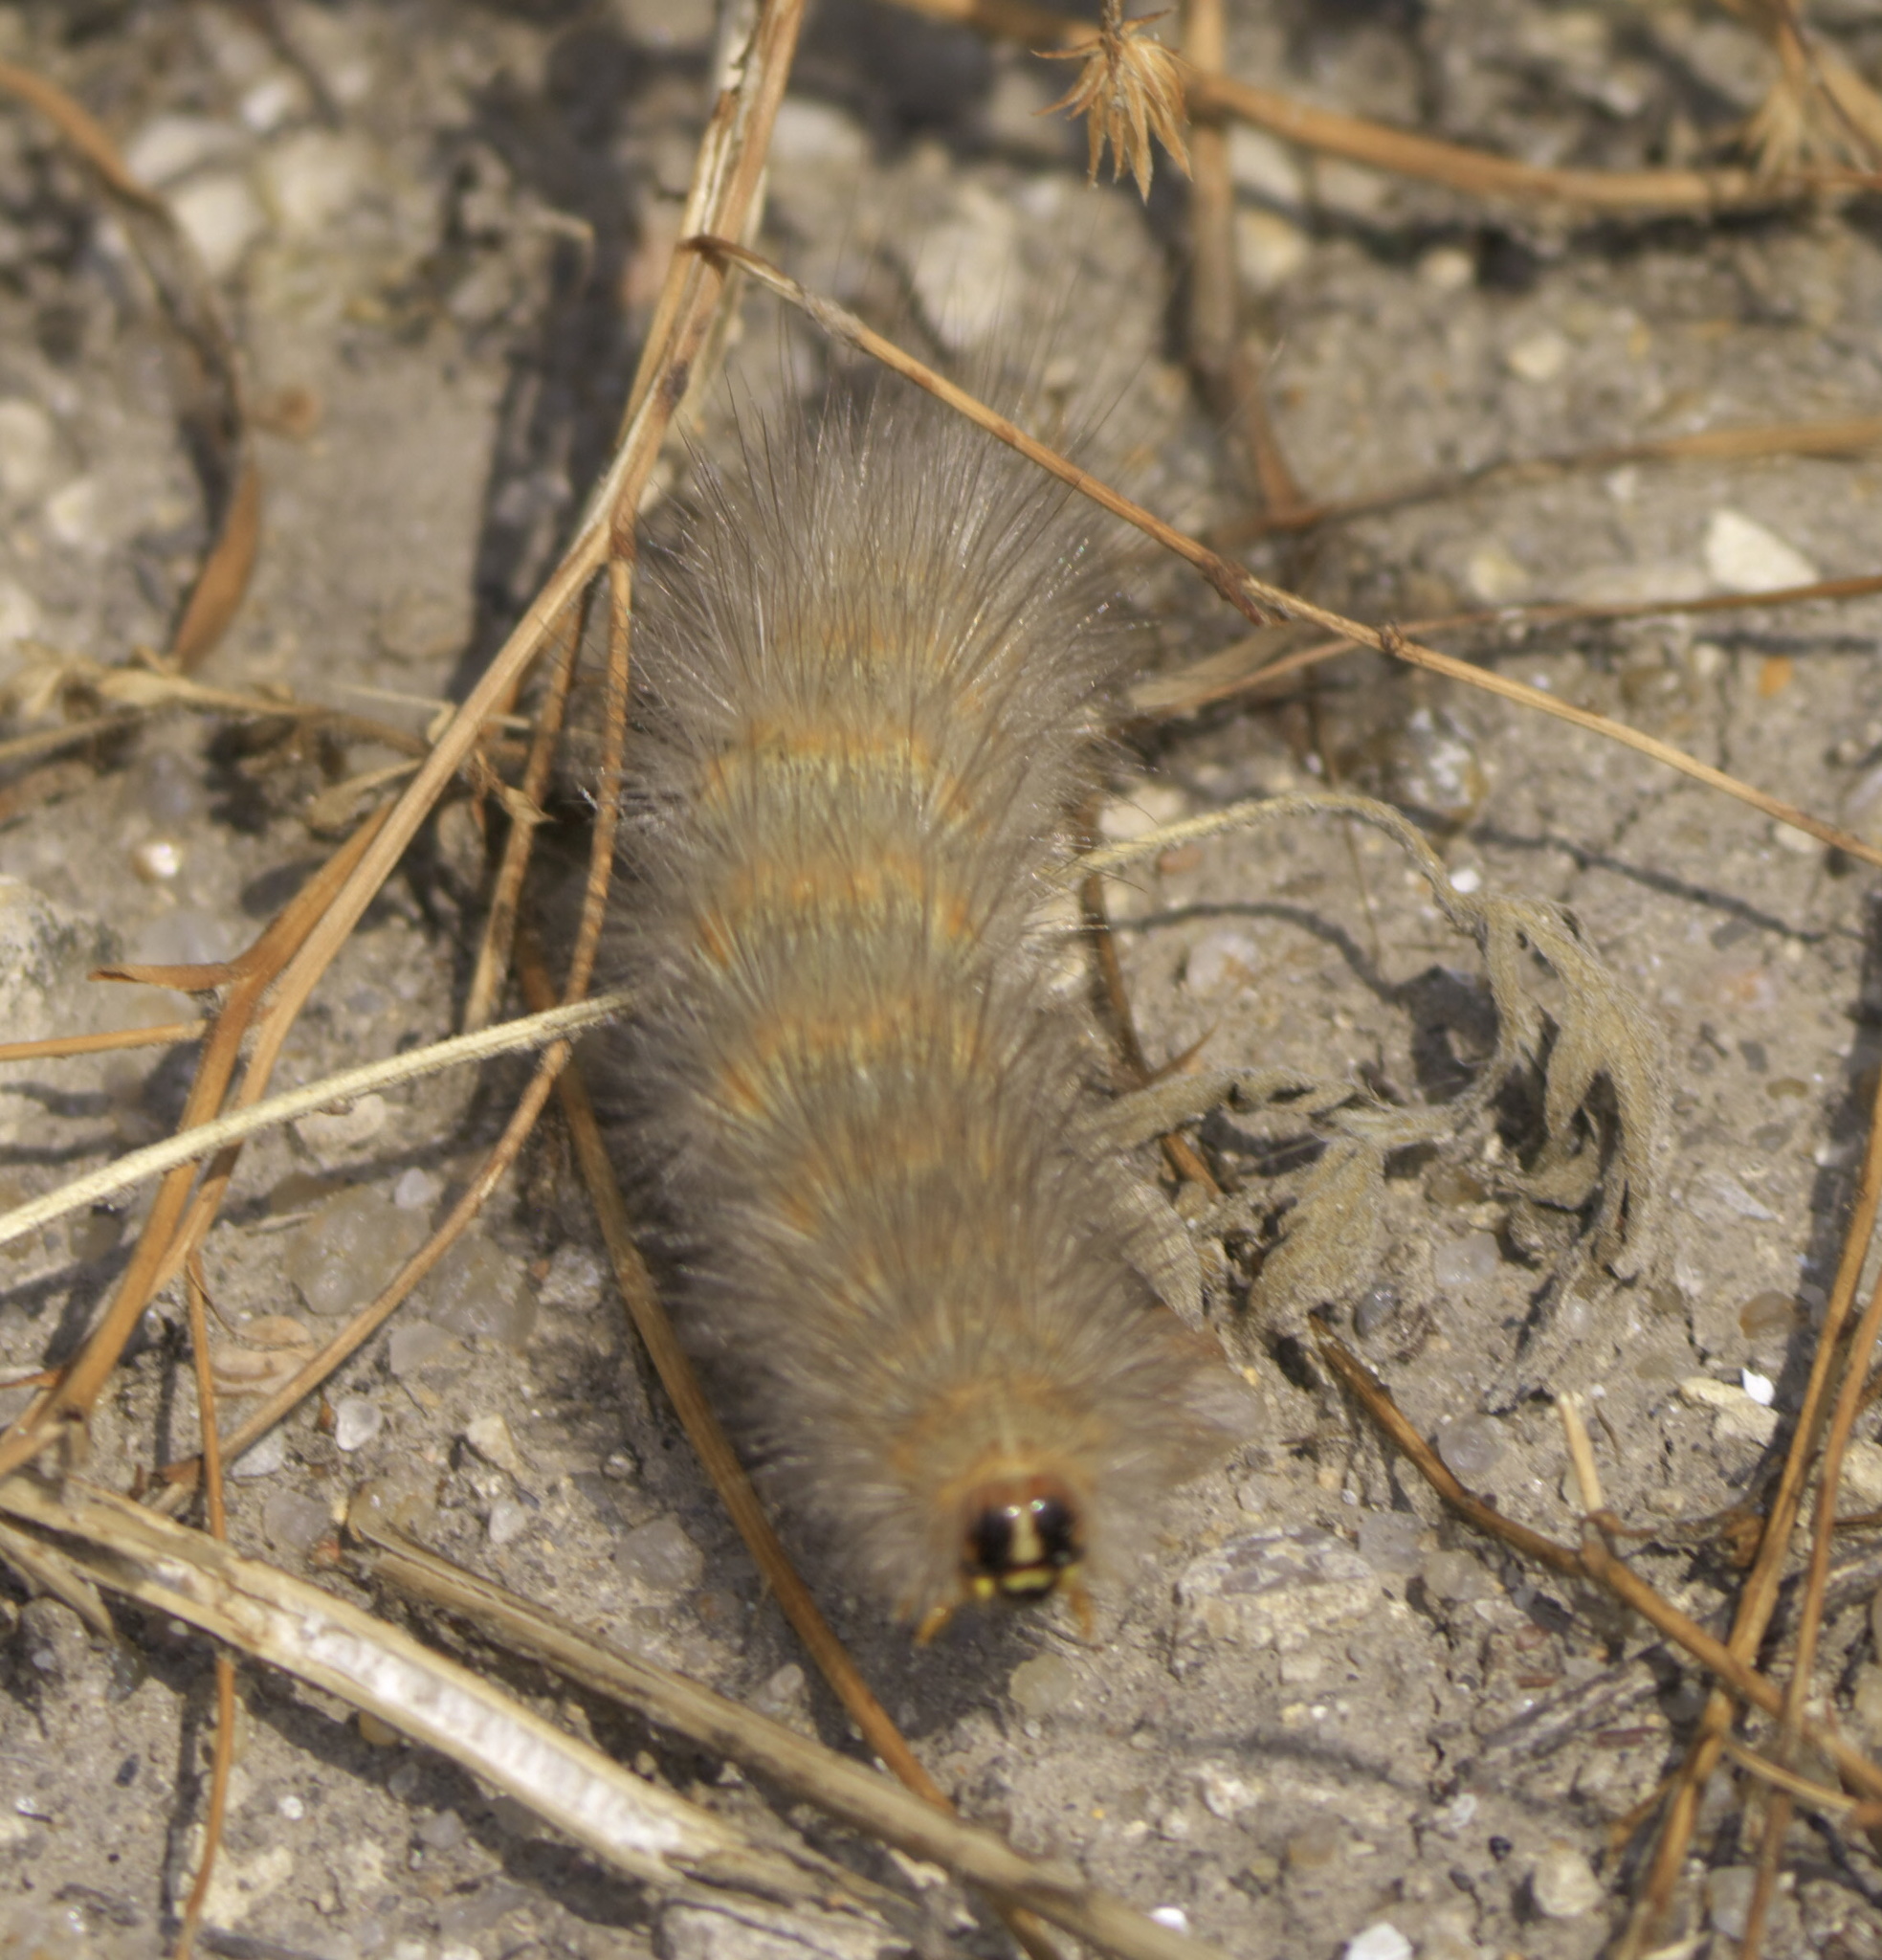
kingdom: Animalia
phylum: Arthropoda
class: Insecta
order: Lepidoptera
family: Erebidae
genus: Estigmene
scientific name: Estigmene acrea
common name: Salt marsh moth
